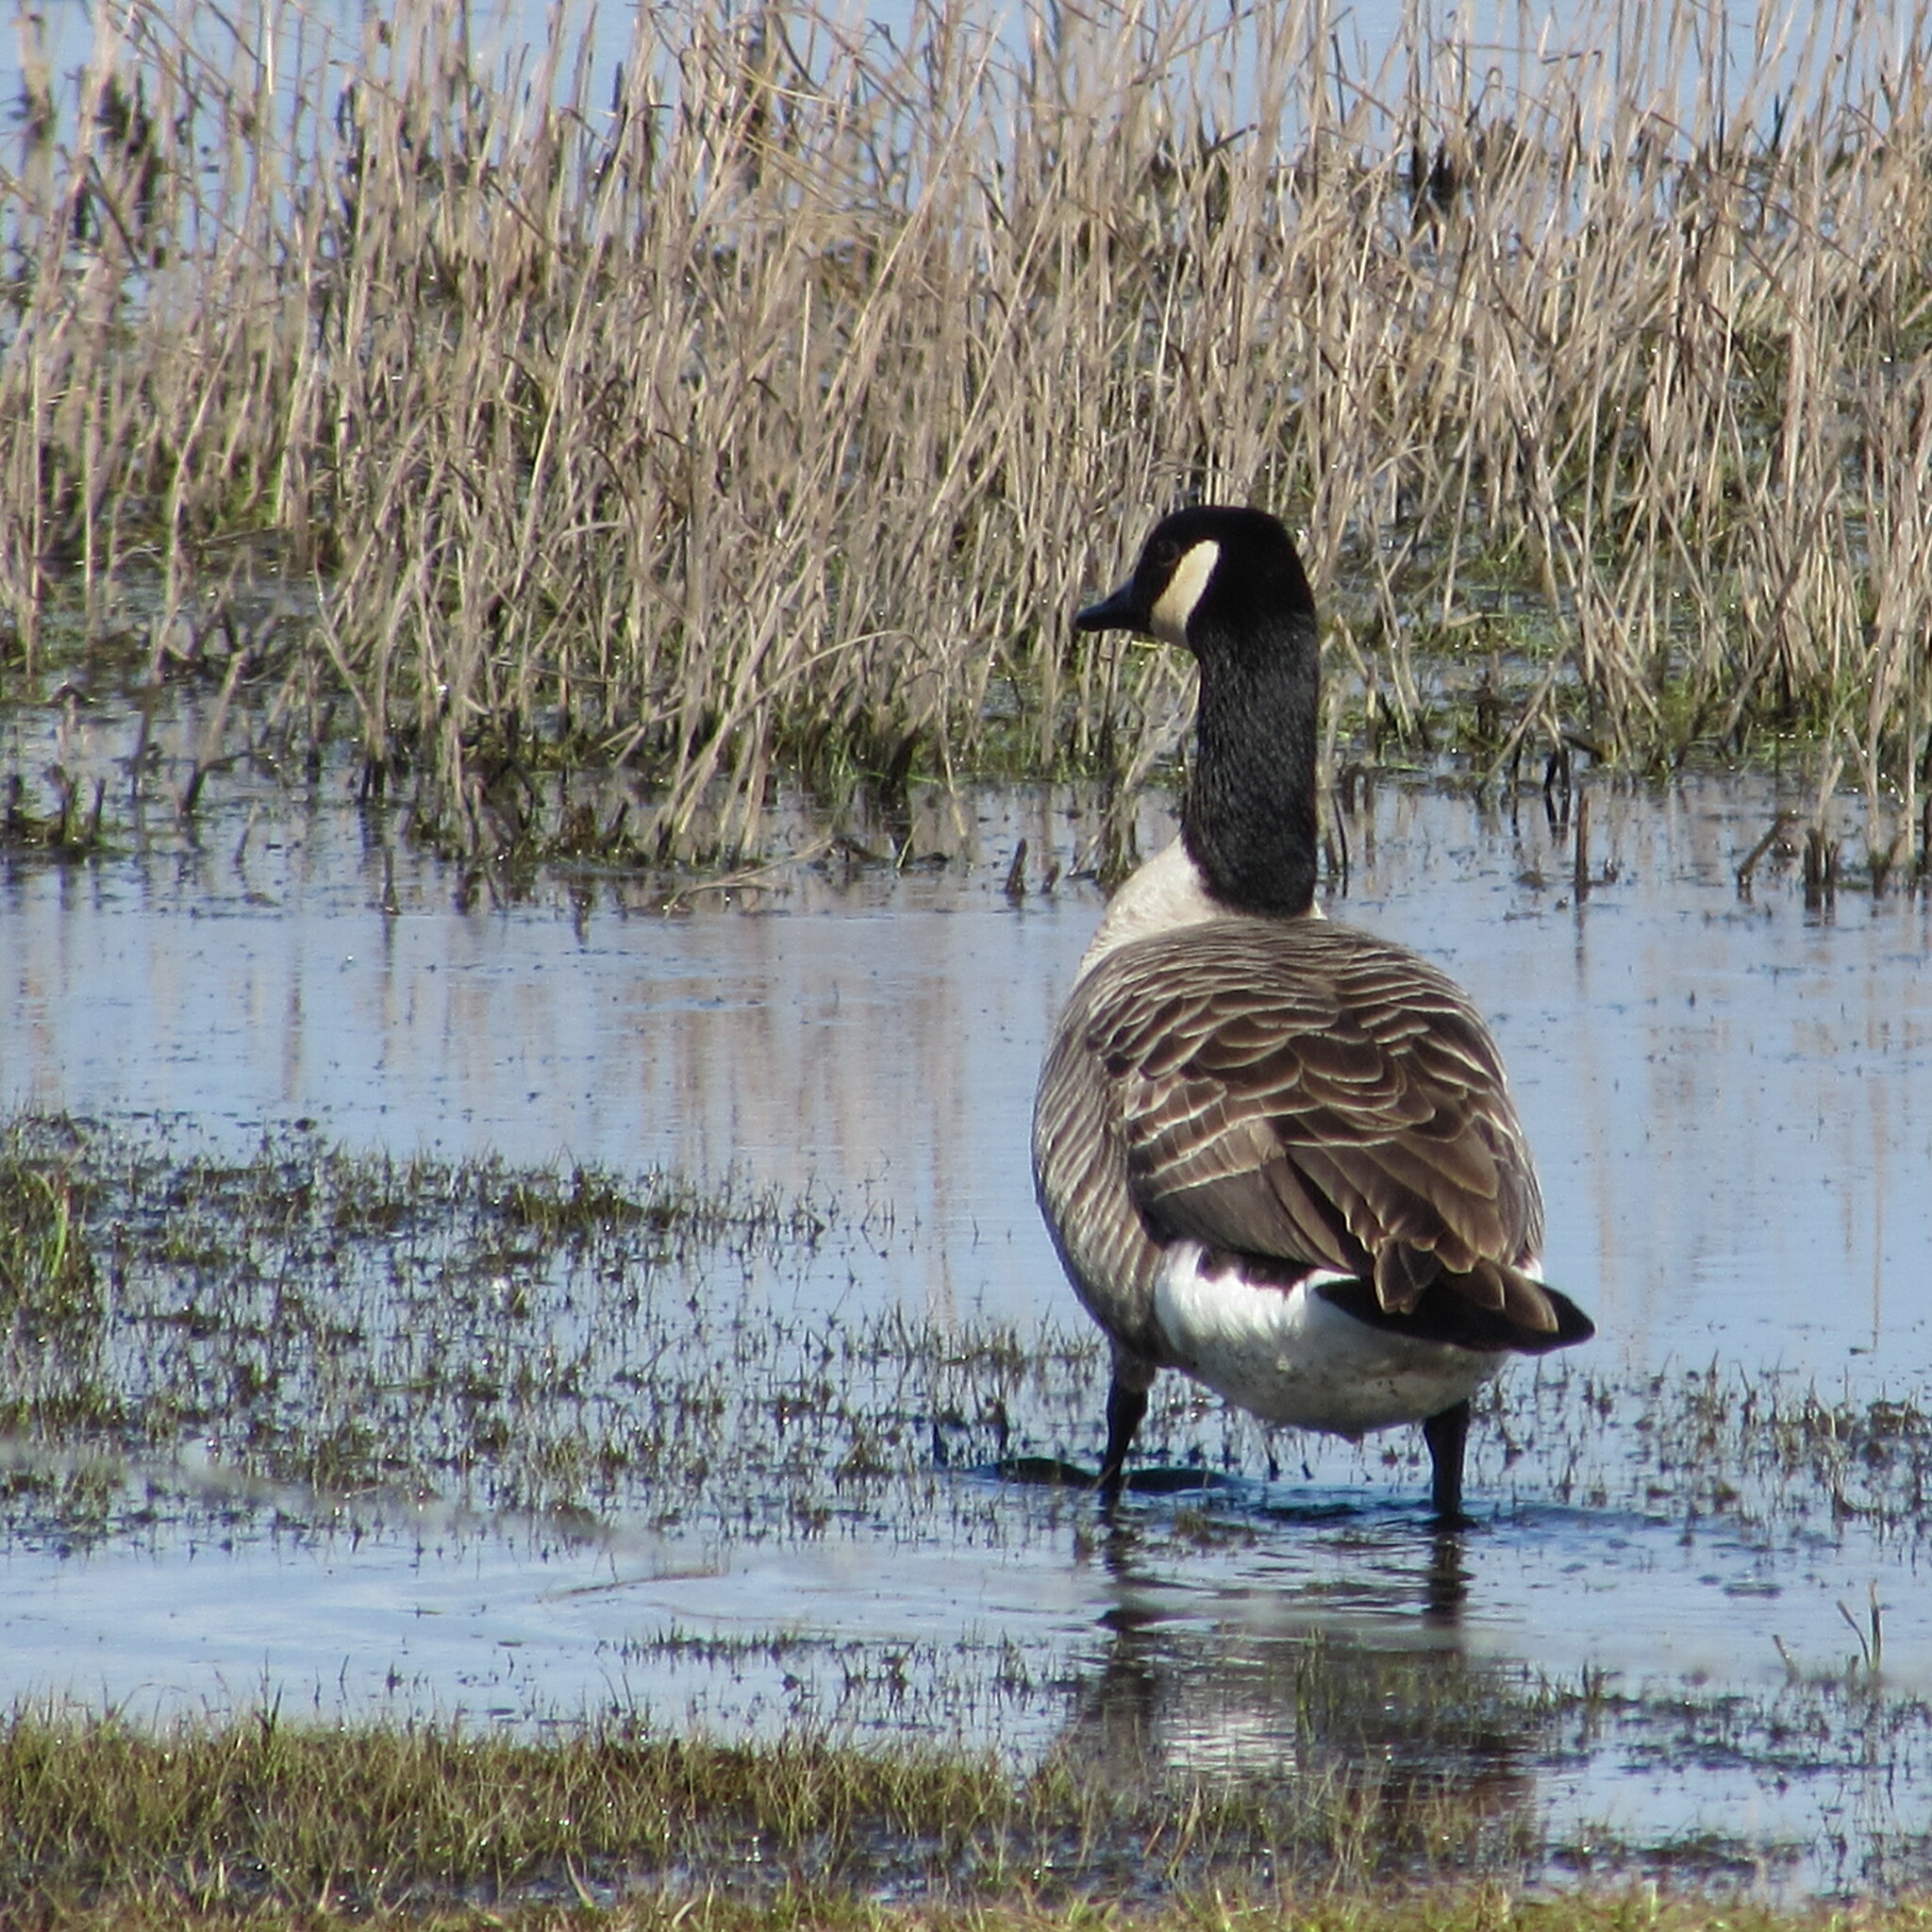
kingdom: Animalia
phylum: Chordata
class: Aves
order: Anseriformes
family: Anatidae
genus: Branta
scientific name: Branta canadensis
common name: Canada goose
